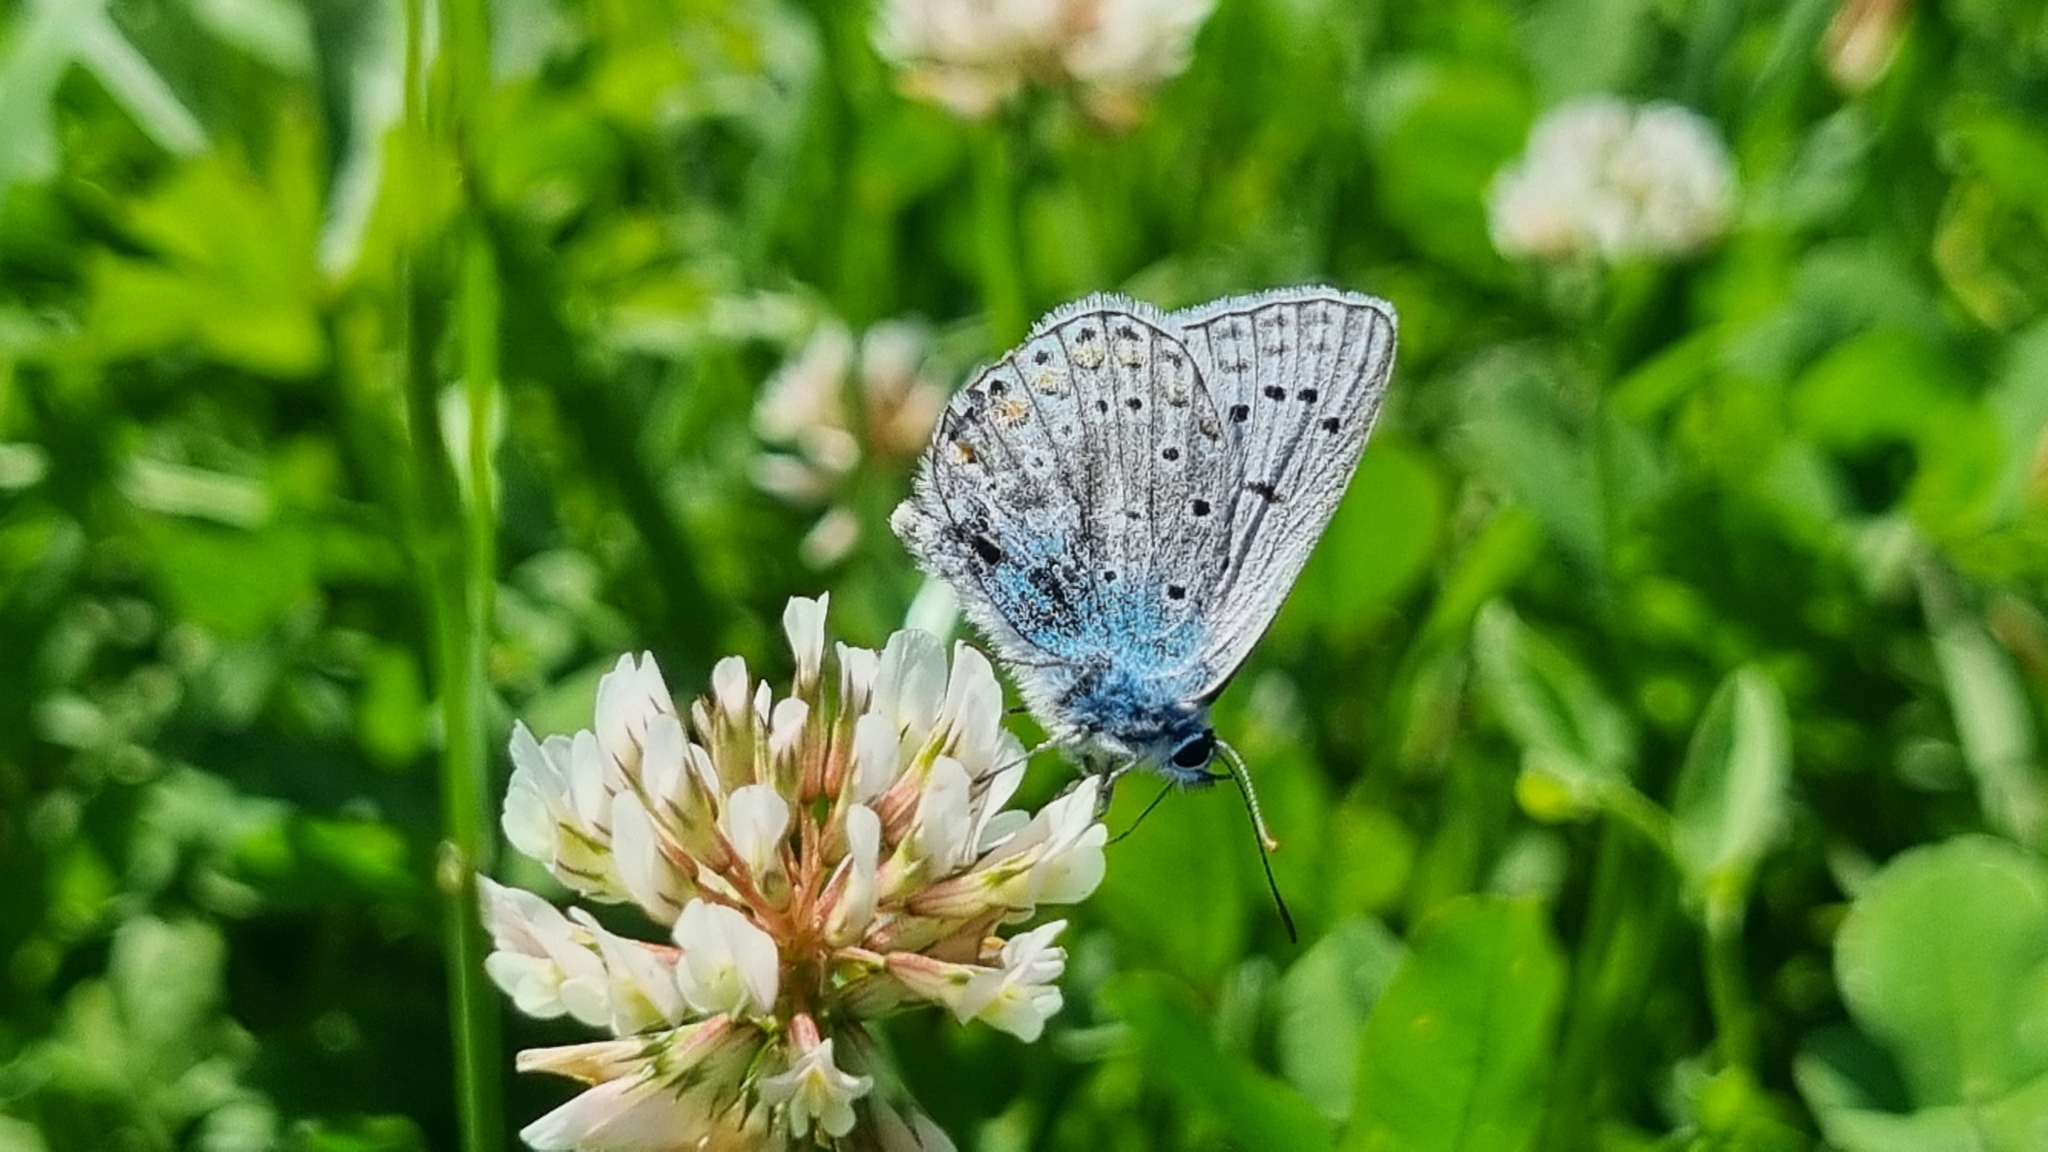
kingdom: Animalia
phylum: Arthropoda
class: Insecta
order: Lepidoptera
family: Lycaenidae
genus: Polyommatus
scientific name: Polyommatus icarus
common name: Common blue
